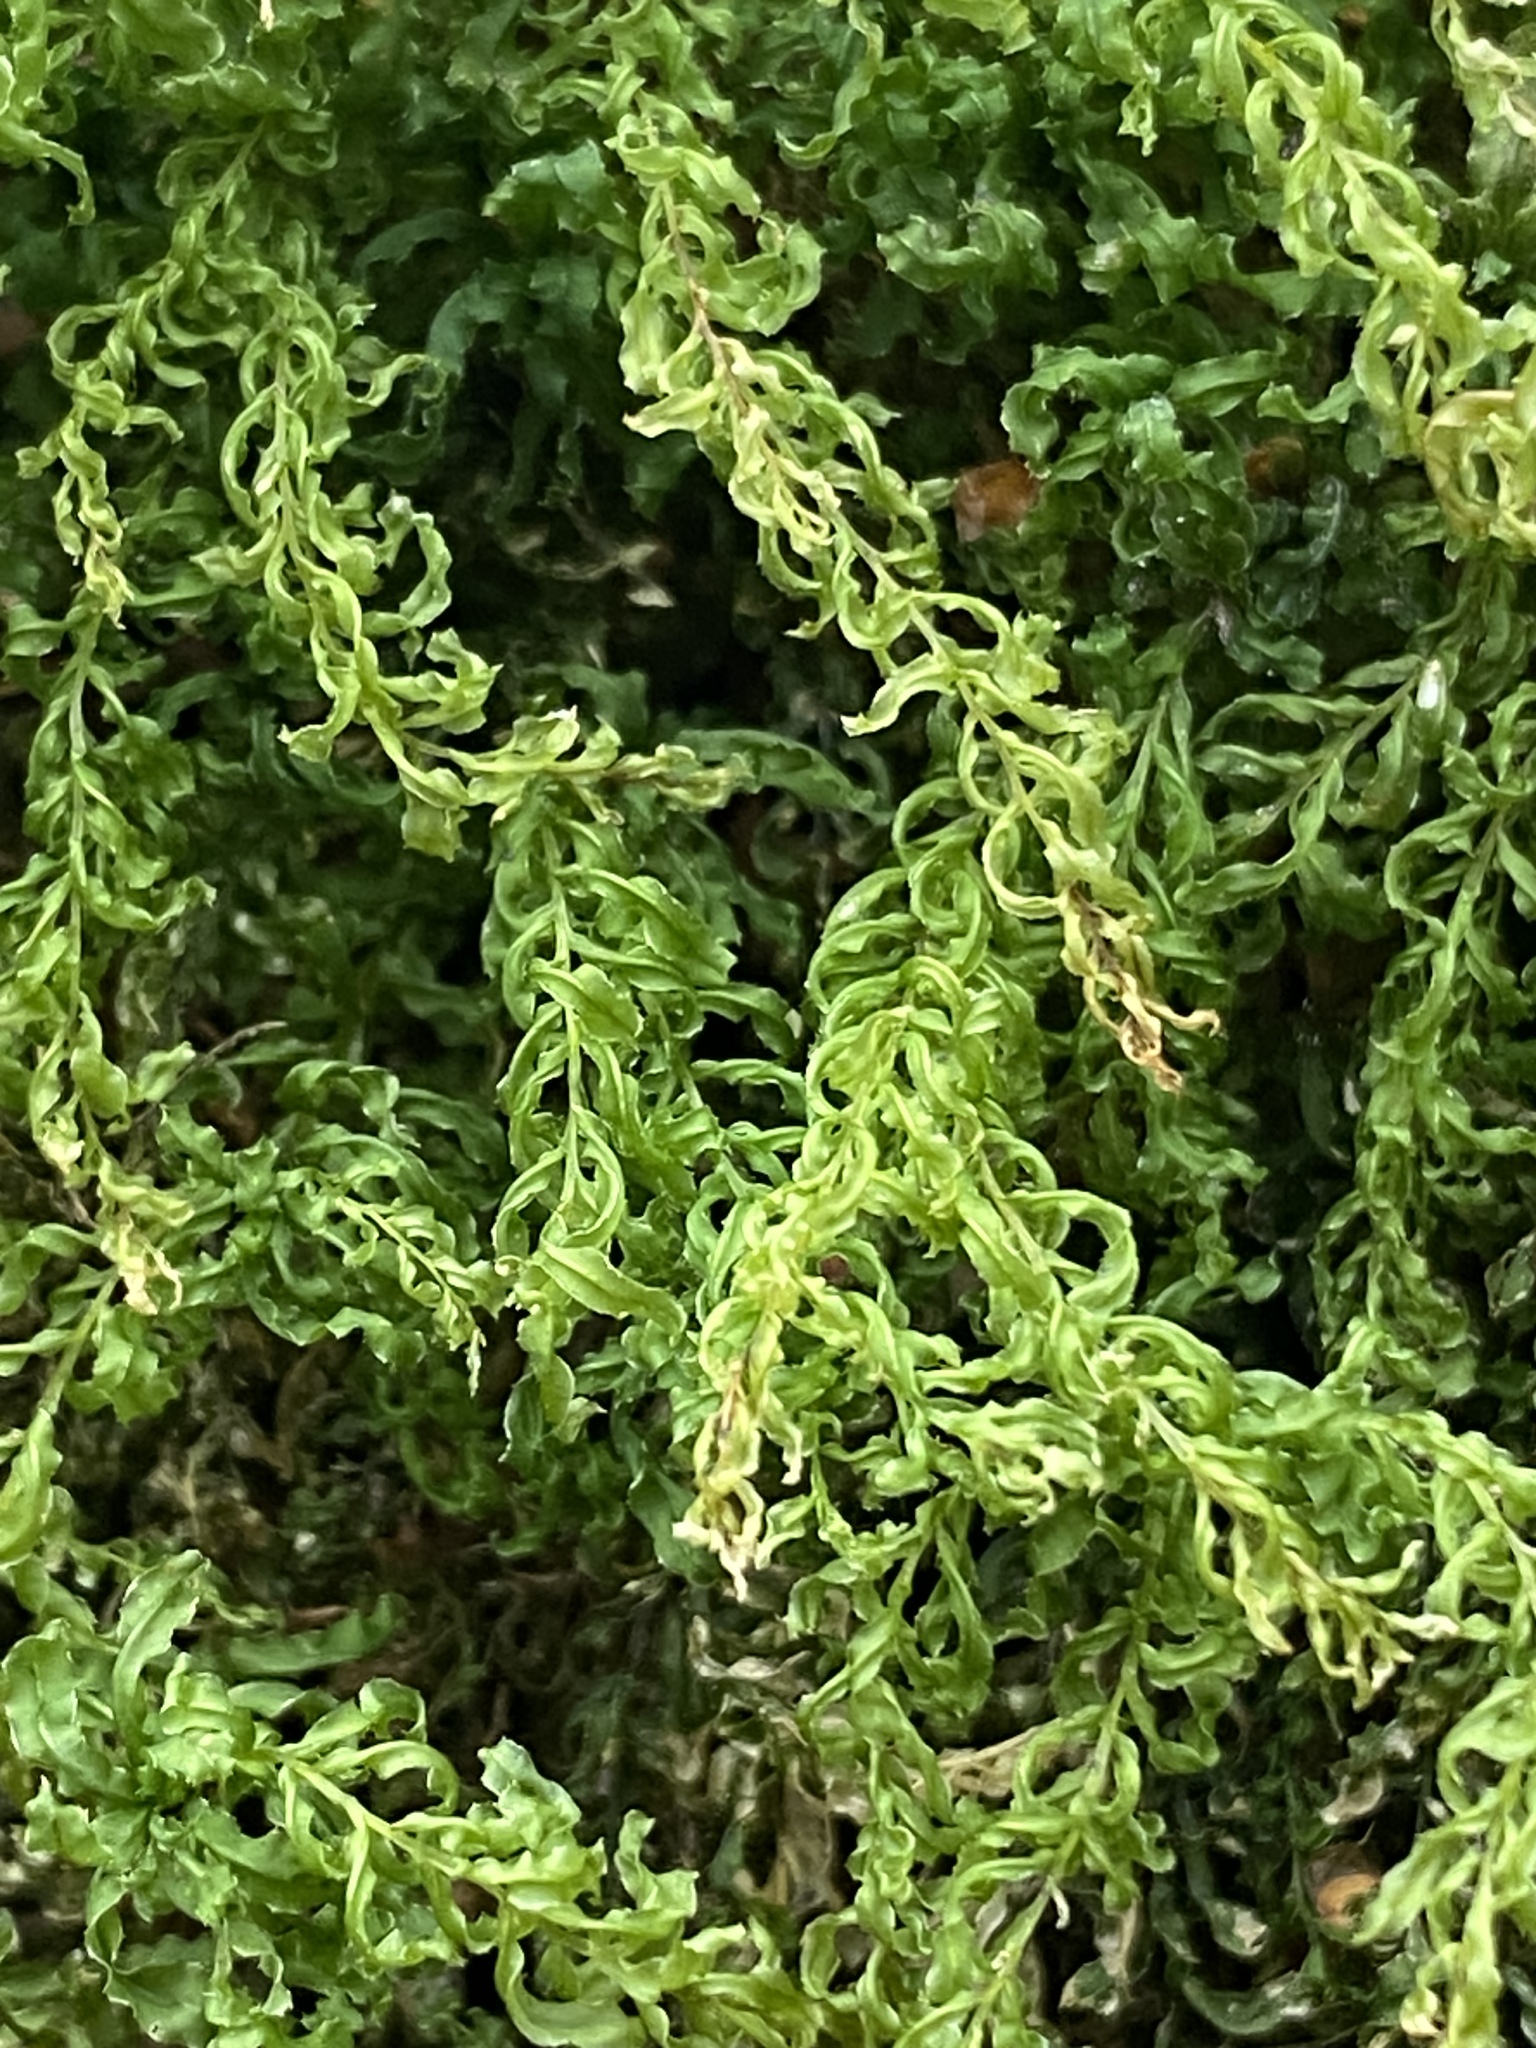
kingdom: Plantae
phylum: Bryophyta
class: Bryopsida
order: Bryales
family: Mniaceae
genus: Plagiomnium
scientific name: Plagiomnium undulatum
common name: Hart's-tongue thyme-moss
